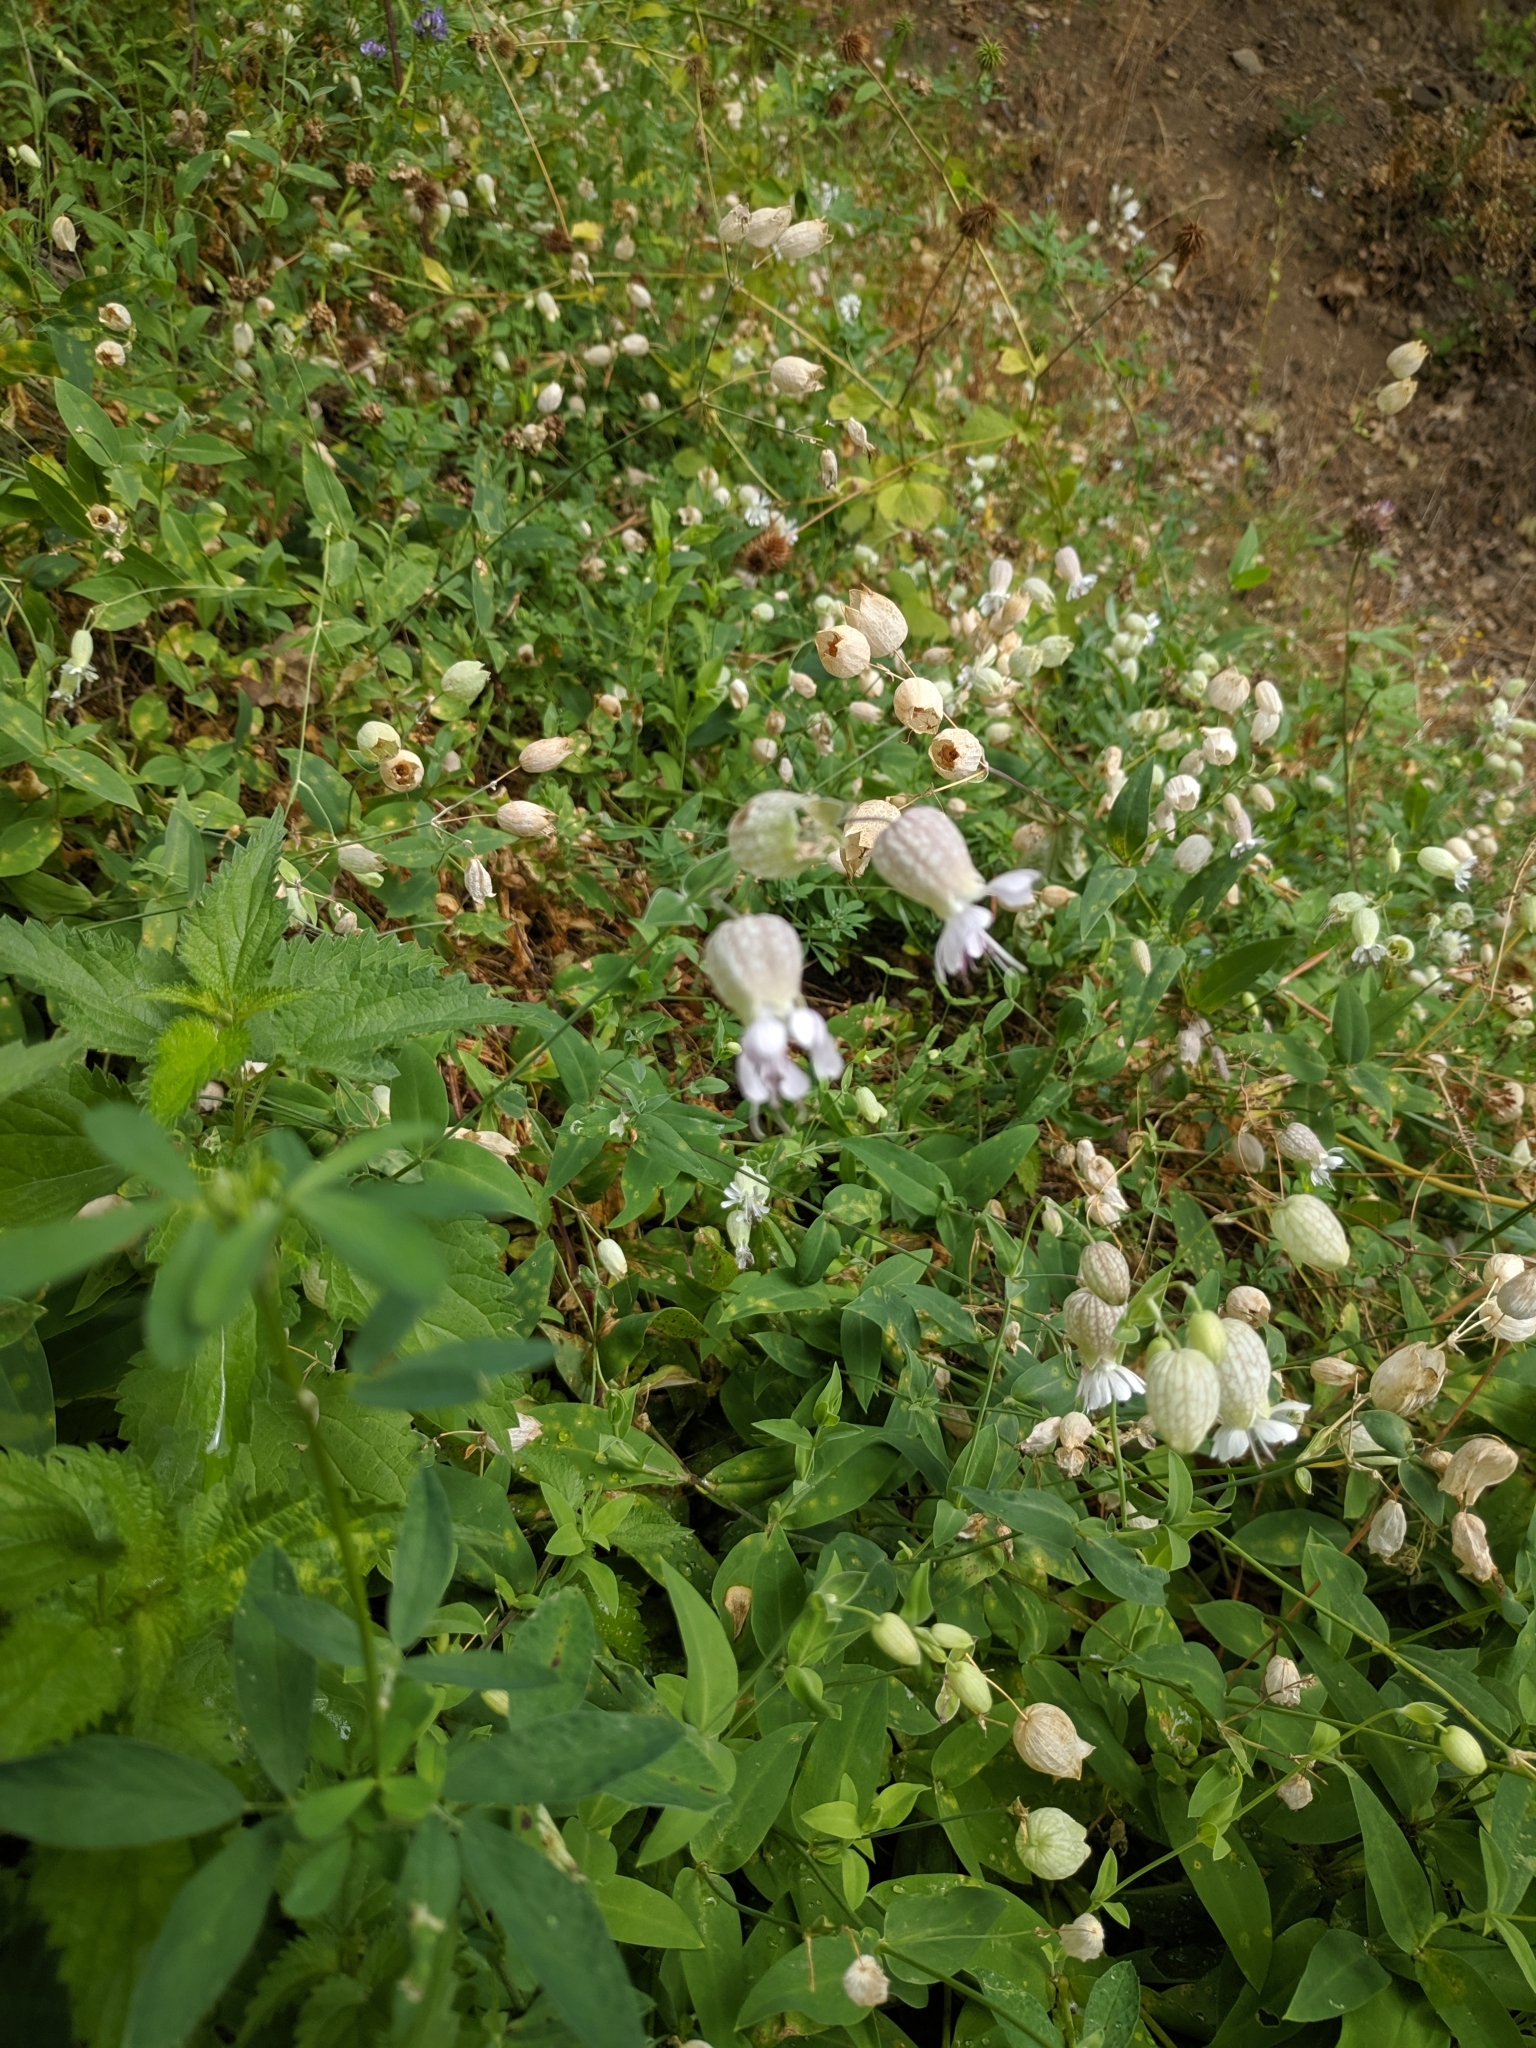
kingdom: Plantae
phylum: Tracheophyta
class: Magnoliopsida
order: Caryophyllales
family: Caryophyllaceae
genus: Silene
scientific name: Silene vulgaris
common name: Bladder campion
